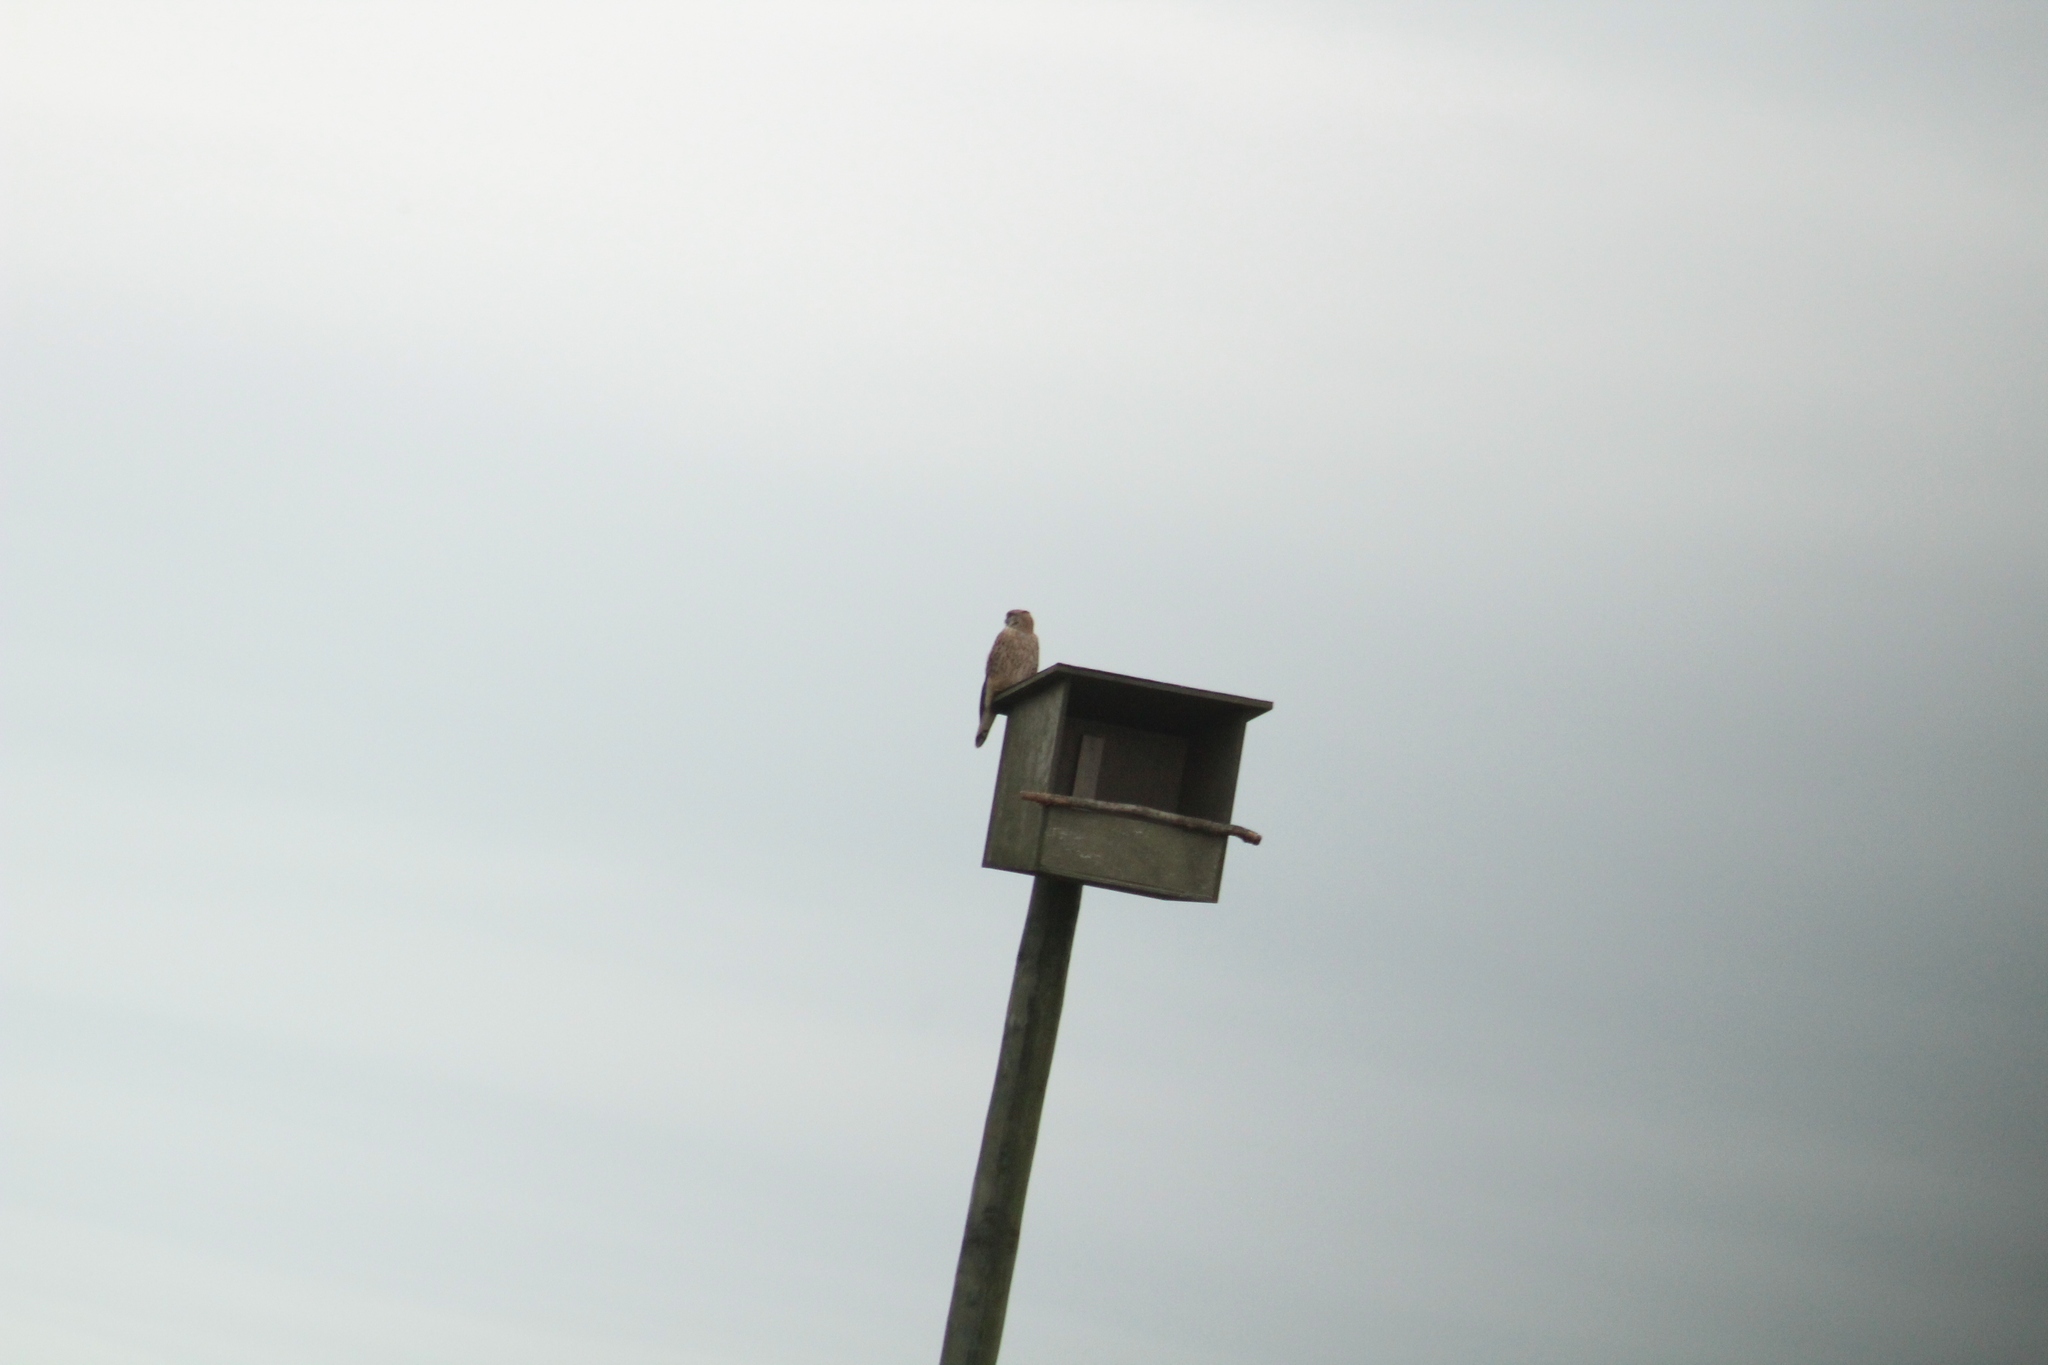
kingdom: Animalia
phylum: Chordata
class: Aves
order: Falconiformes
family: Falconidae
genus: Falco
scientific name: Falco tinnunculus
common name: Common kestrel
